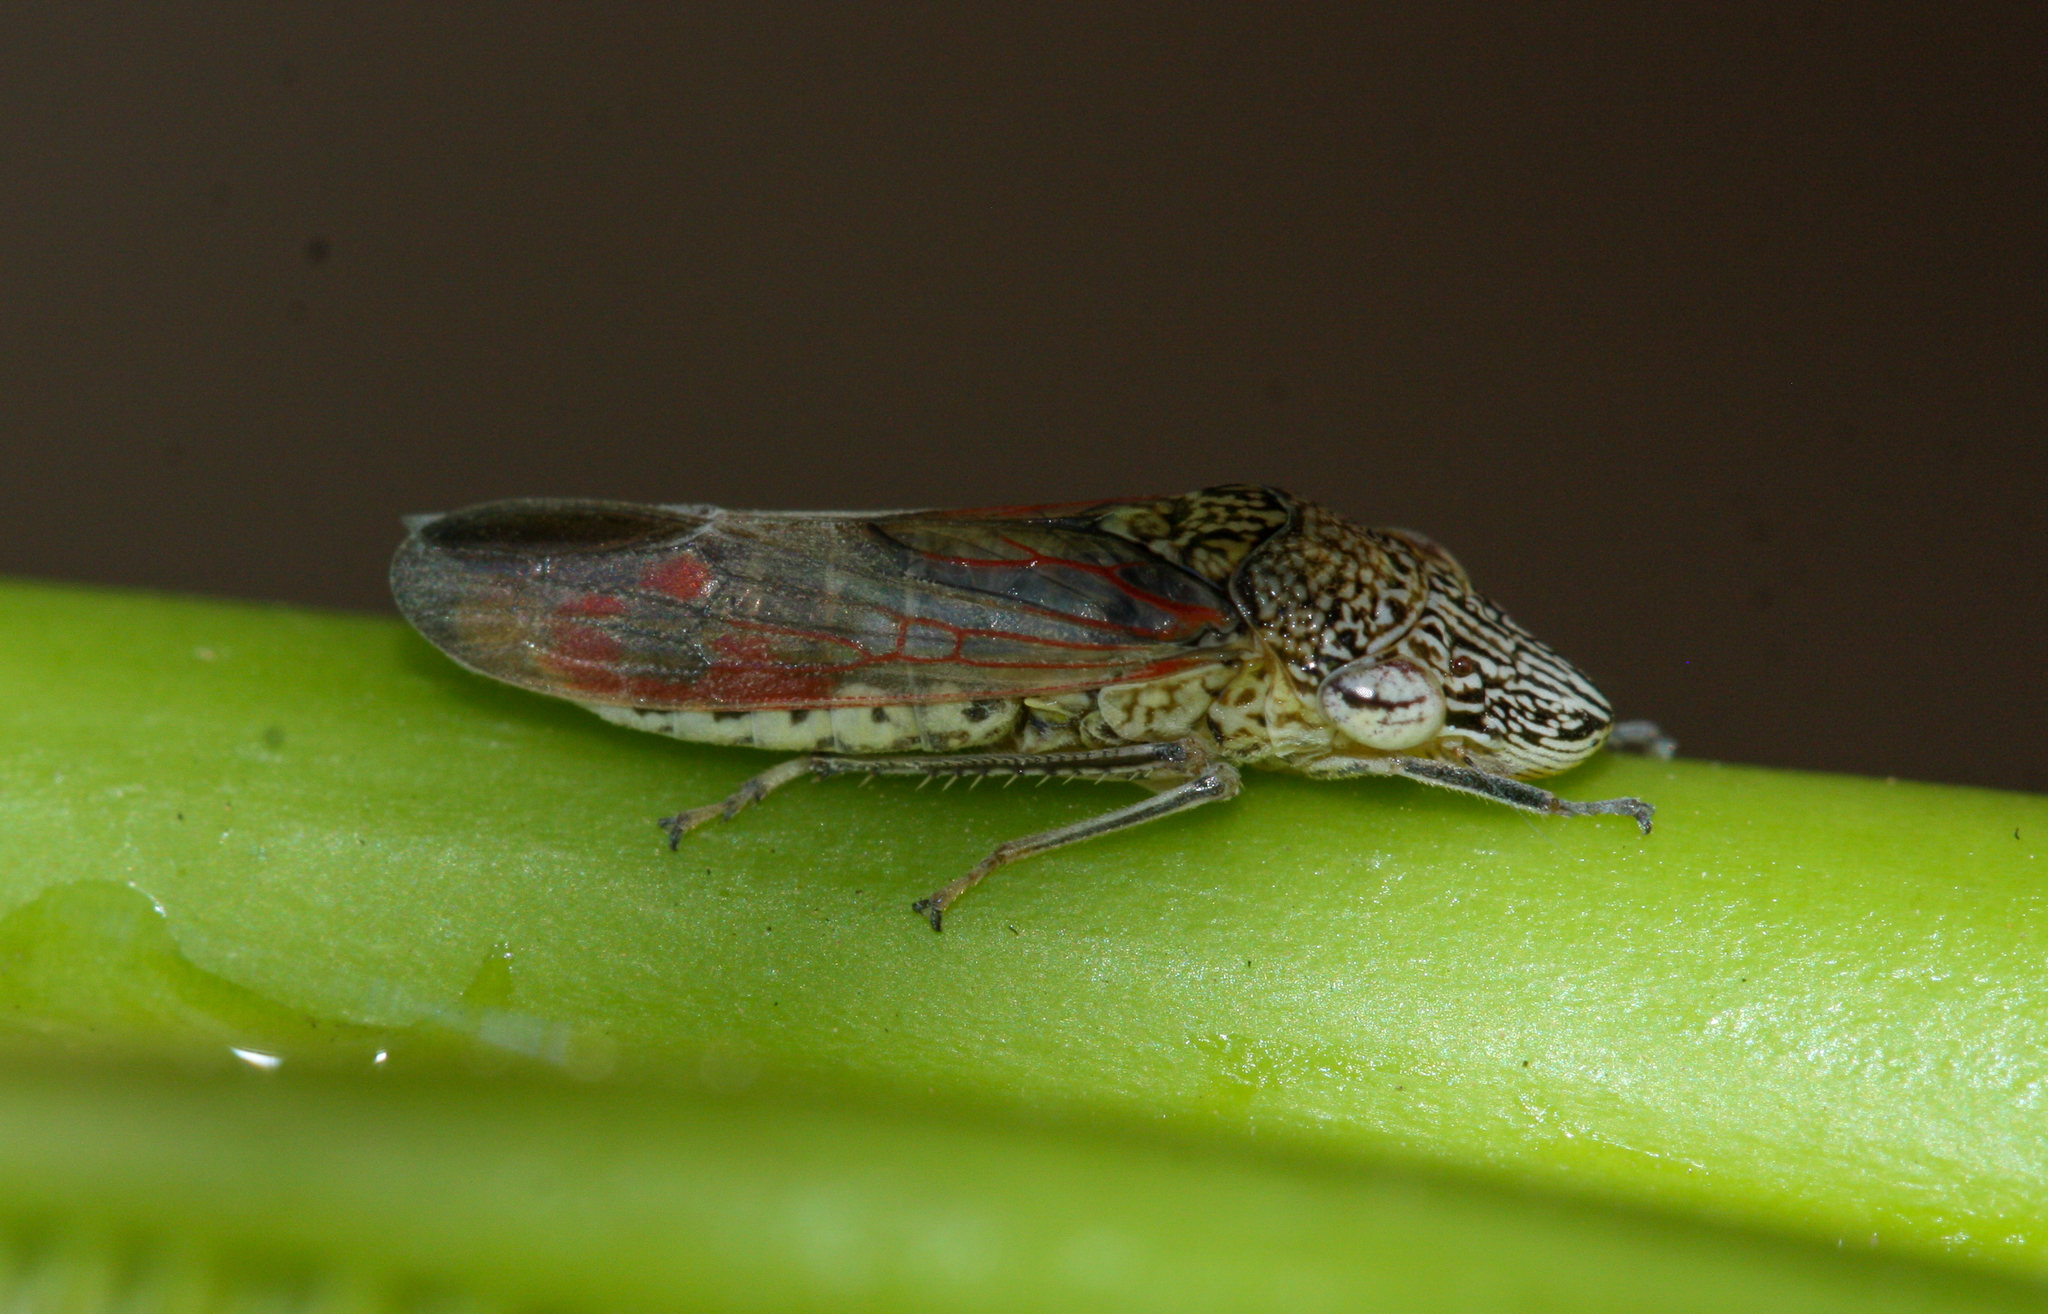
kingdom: Animalia
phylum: Arthropoda
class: Insecta
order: Hemiptera
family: Cicadellidae
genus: Homalodisca
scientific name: Homalodisca liturata
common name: Lacertate sharpshooter
